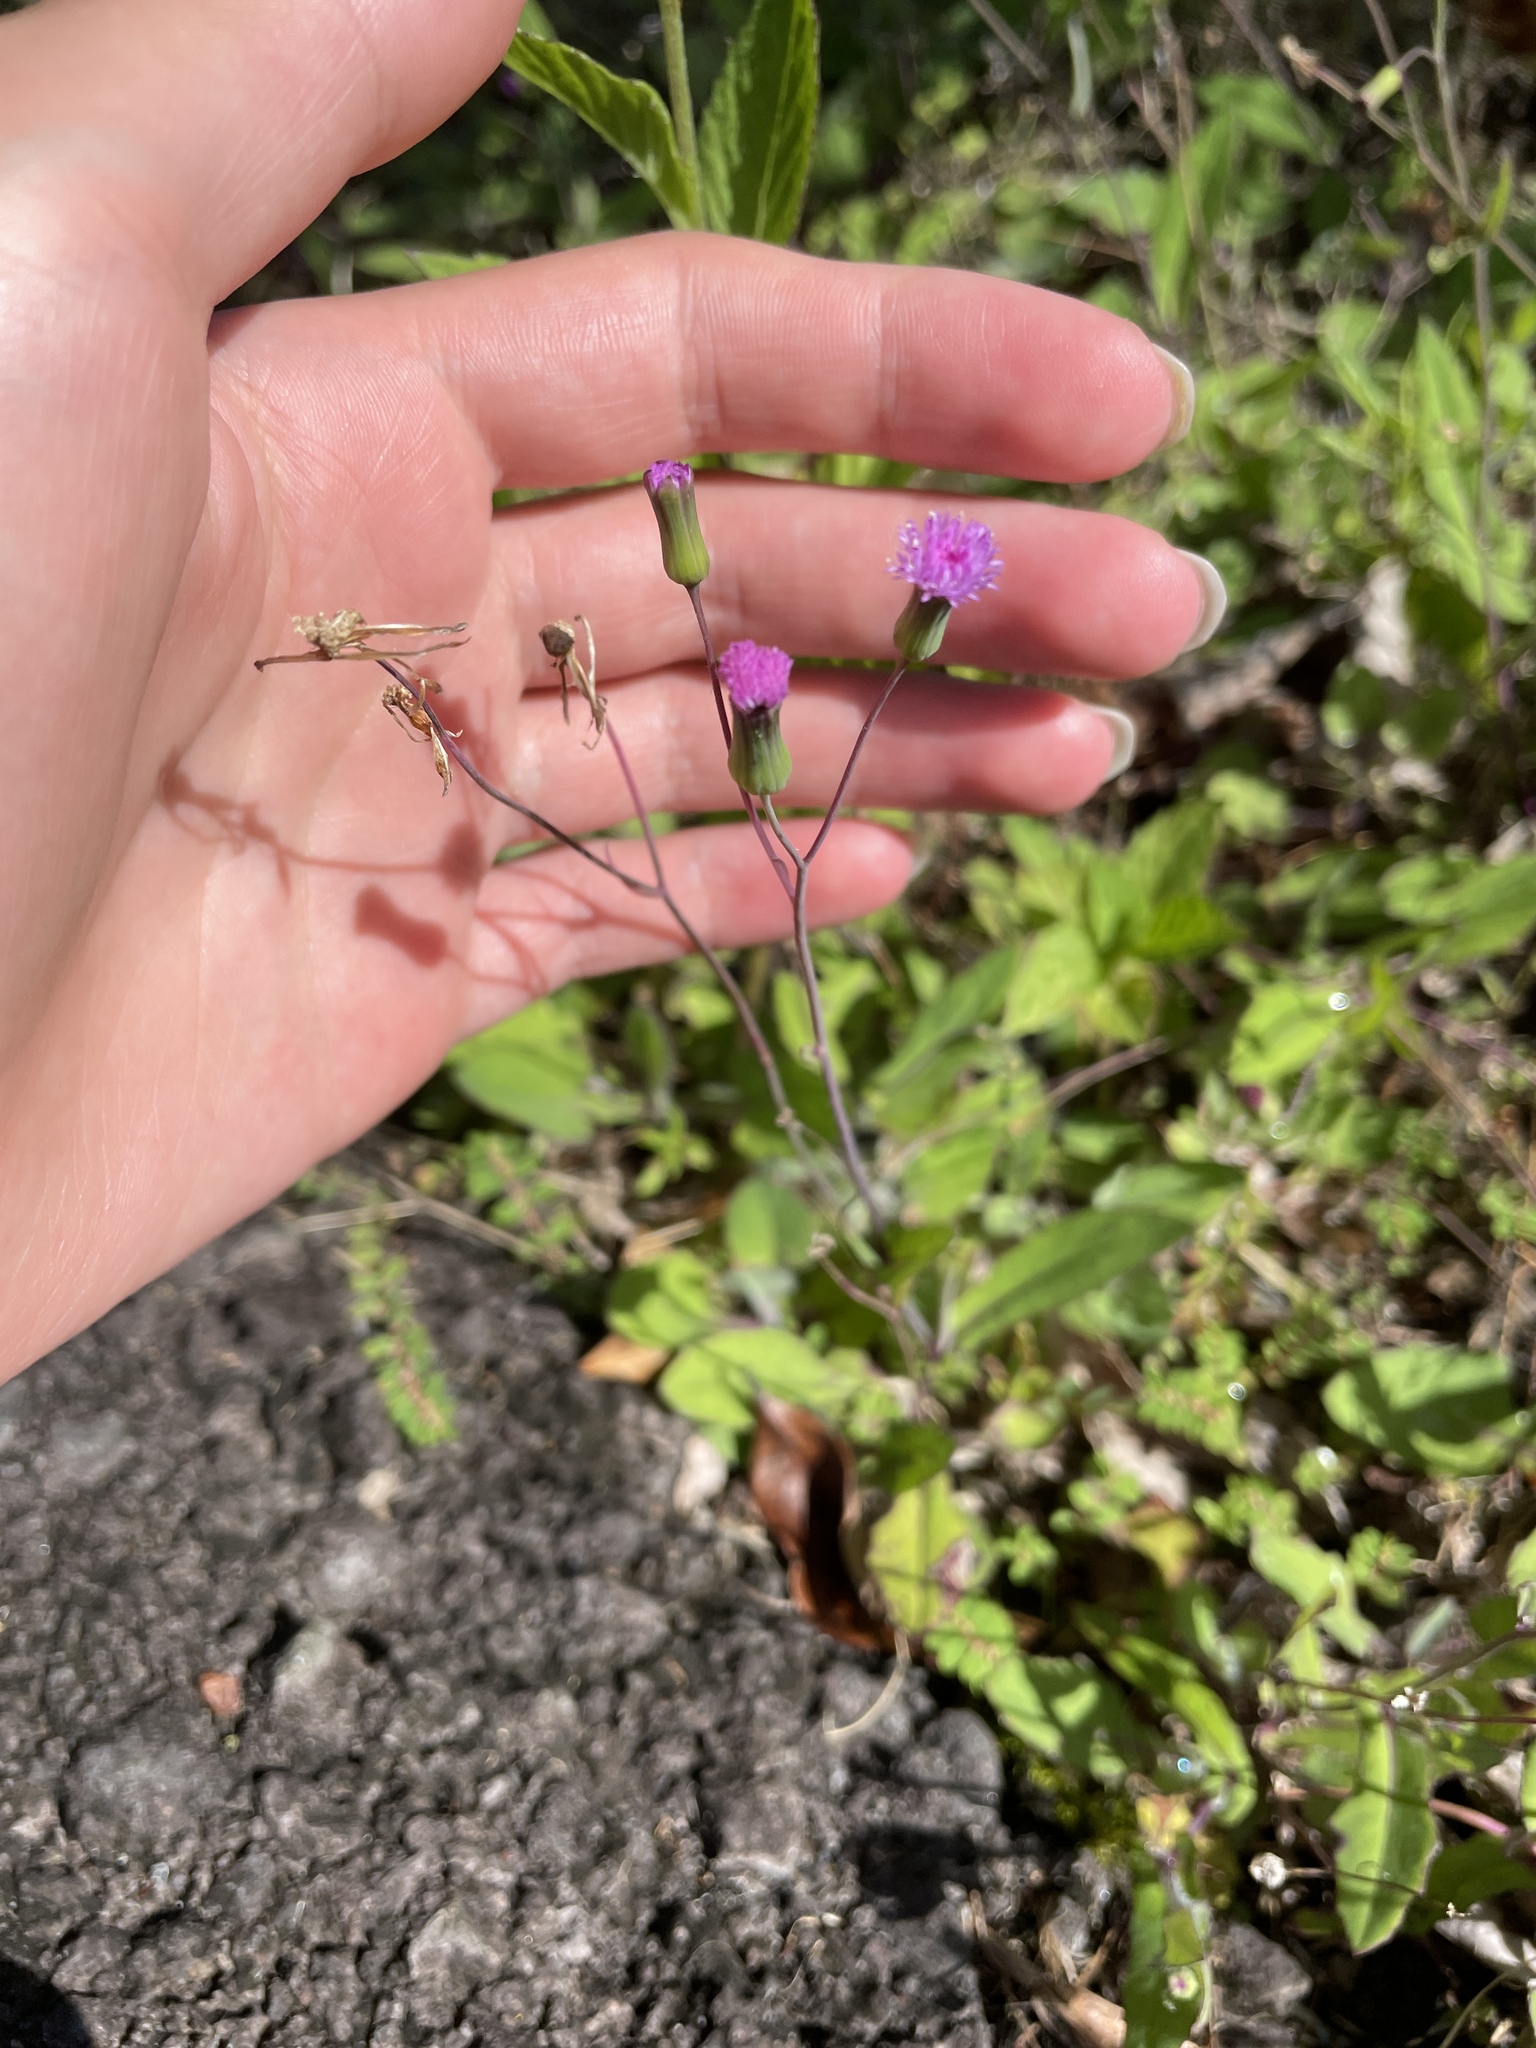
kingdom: Plantae
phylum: Tracheophyta
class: Magnoliopsida
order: Asterales
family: Asteraceae
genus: Emilia
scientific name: Emilia sonchifolia
